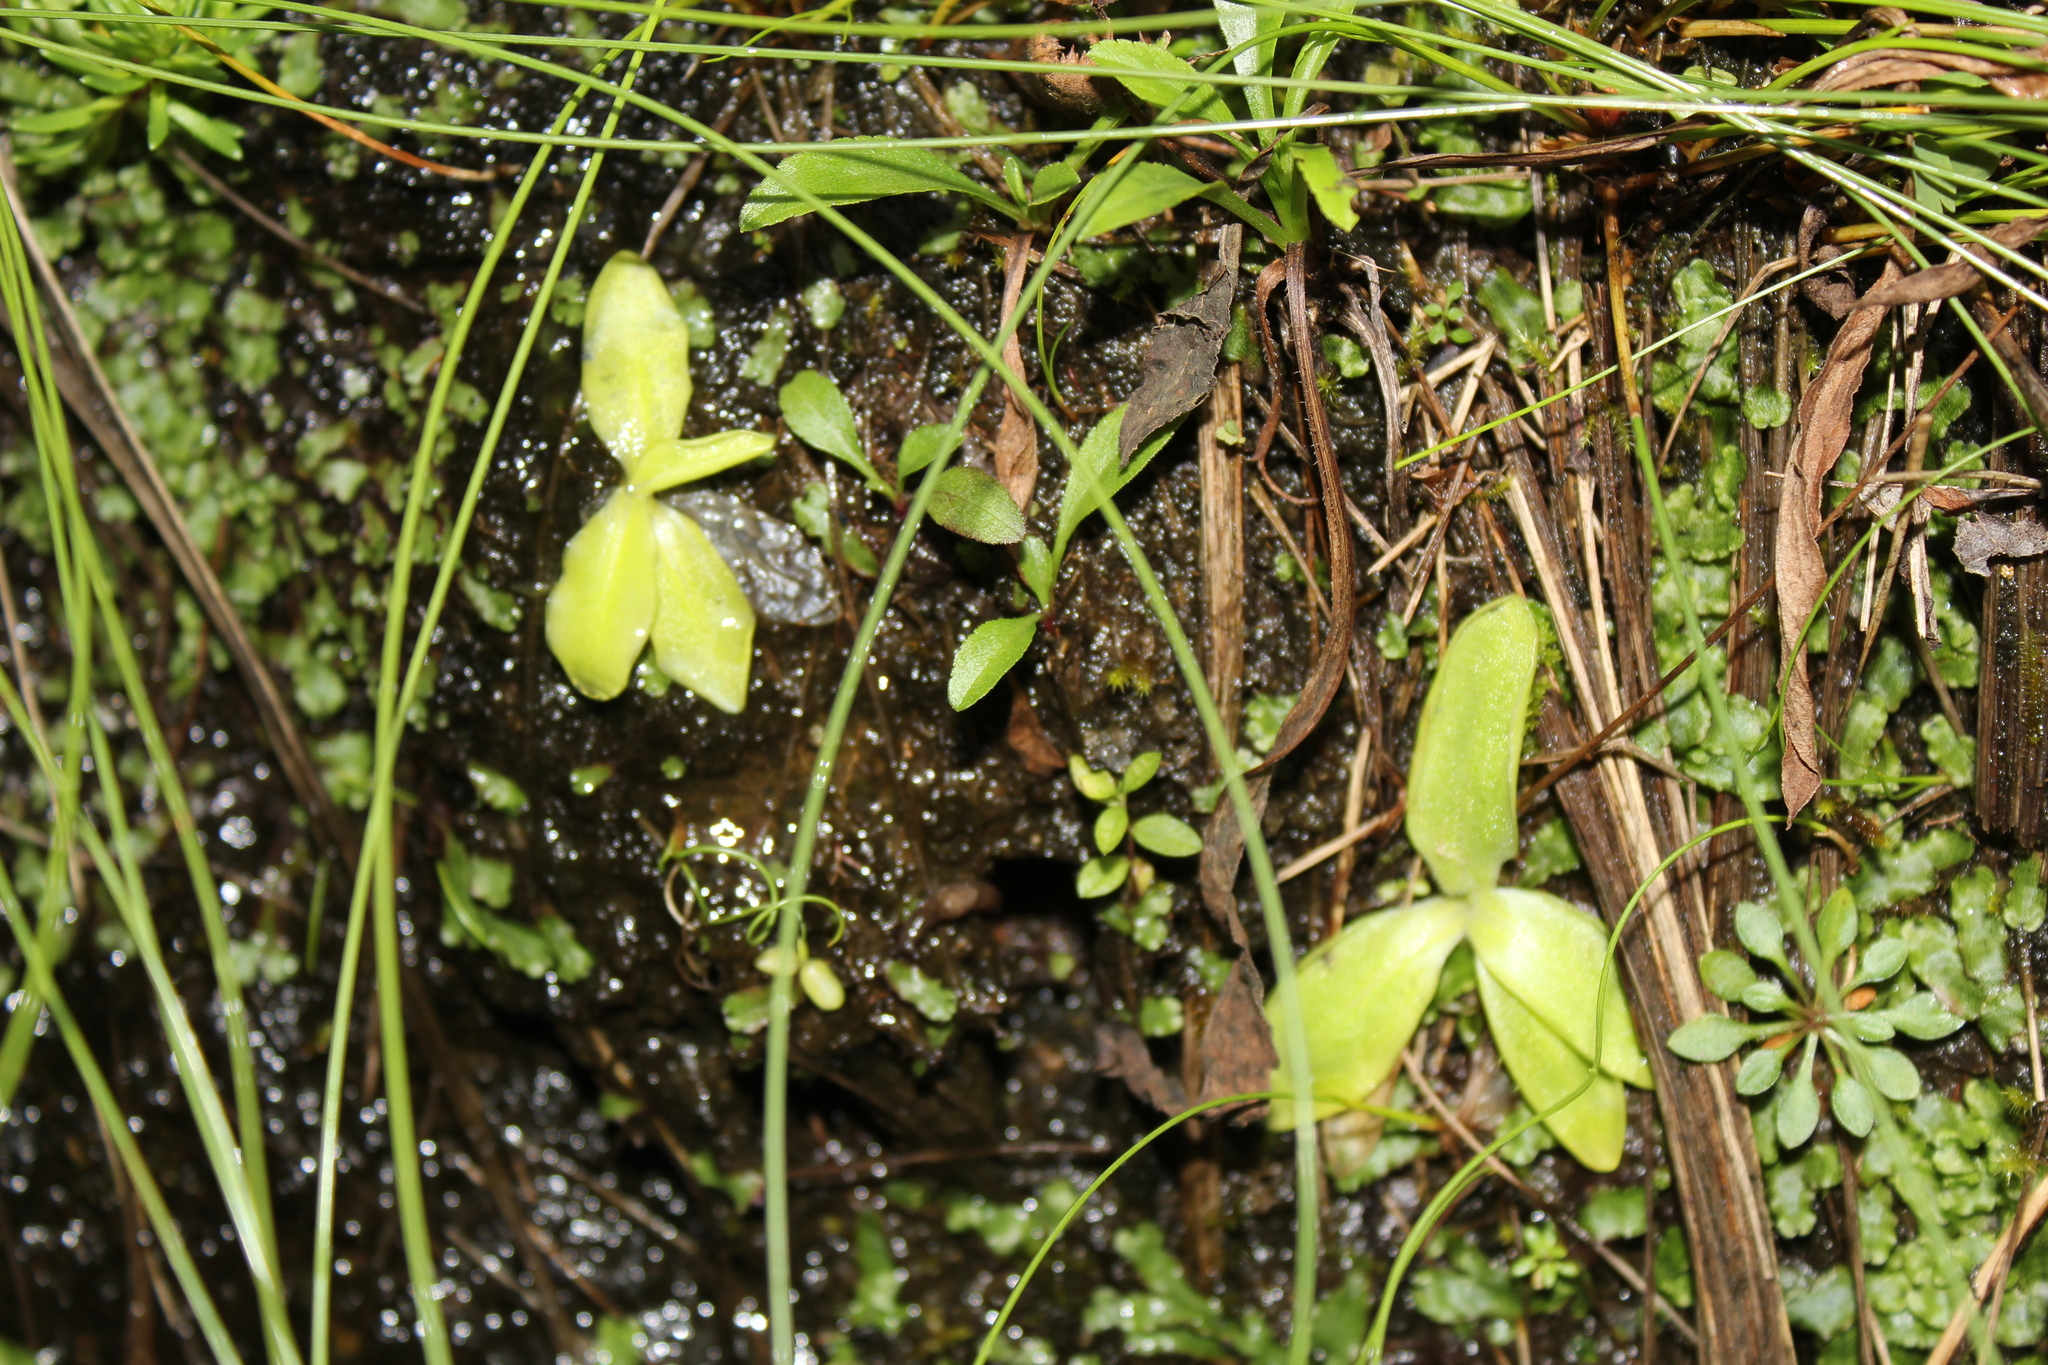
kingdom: Plantae
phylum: Tracheophyta
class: Magnoliopsida
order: Lamiales
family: Lentibulariaceae
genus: Pinguicula
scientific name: Pinguicula vulgaris
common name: Common butterwort
